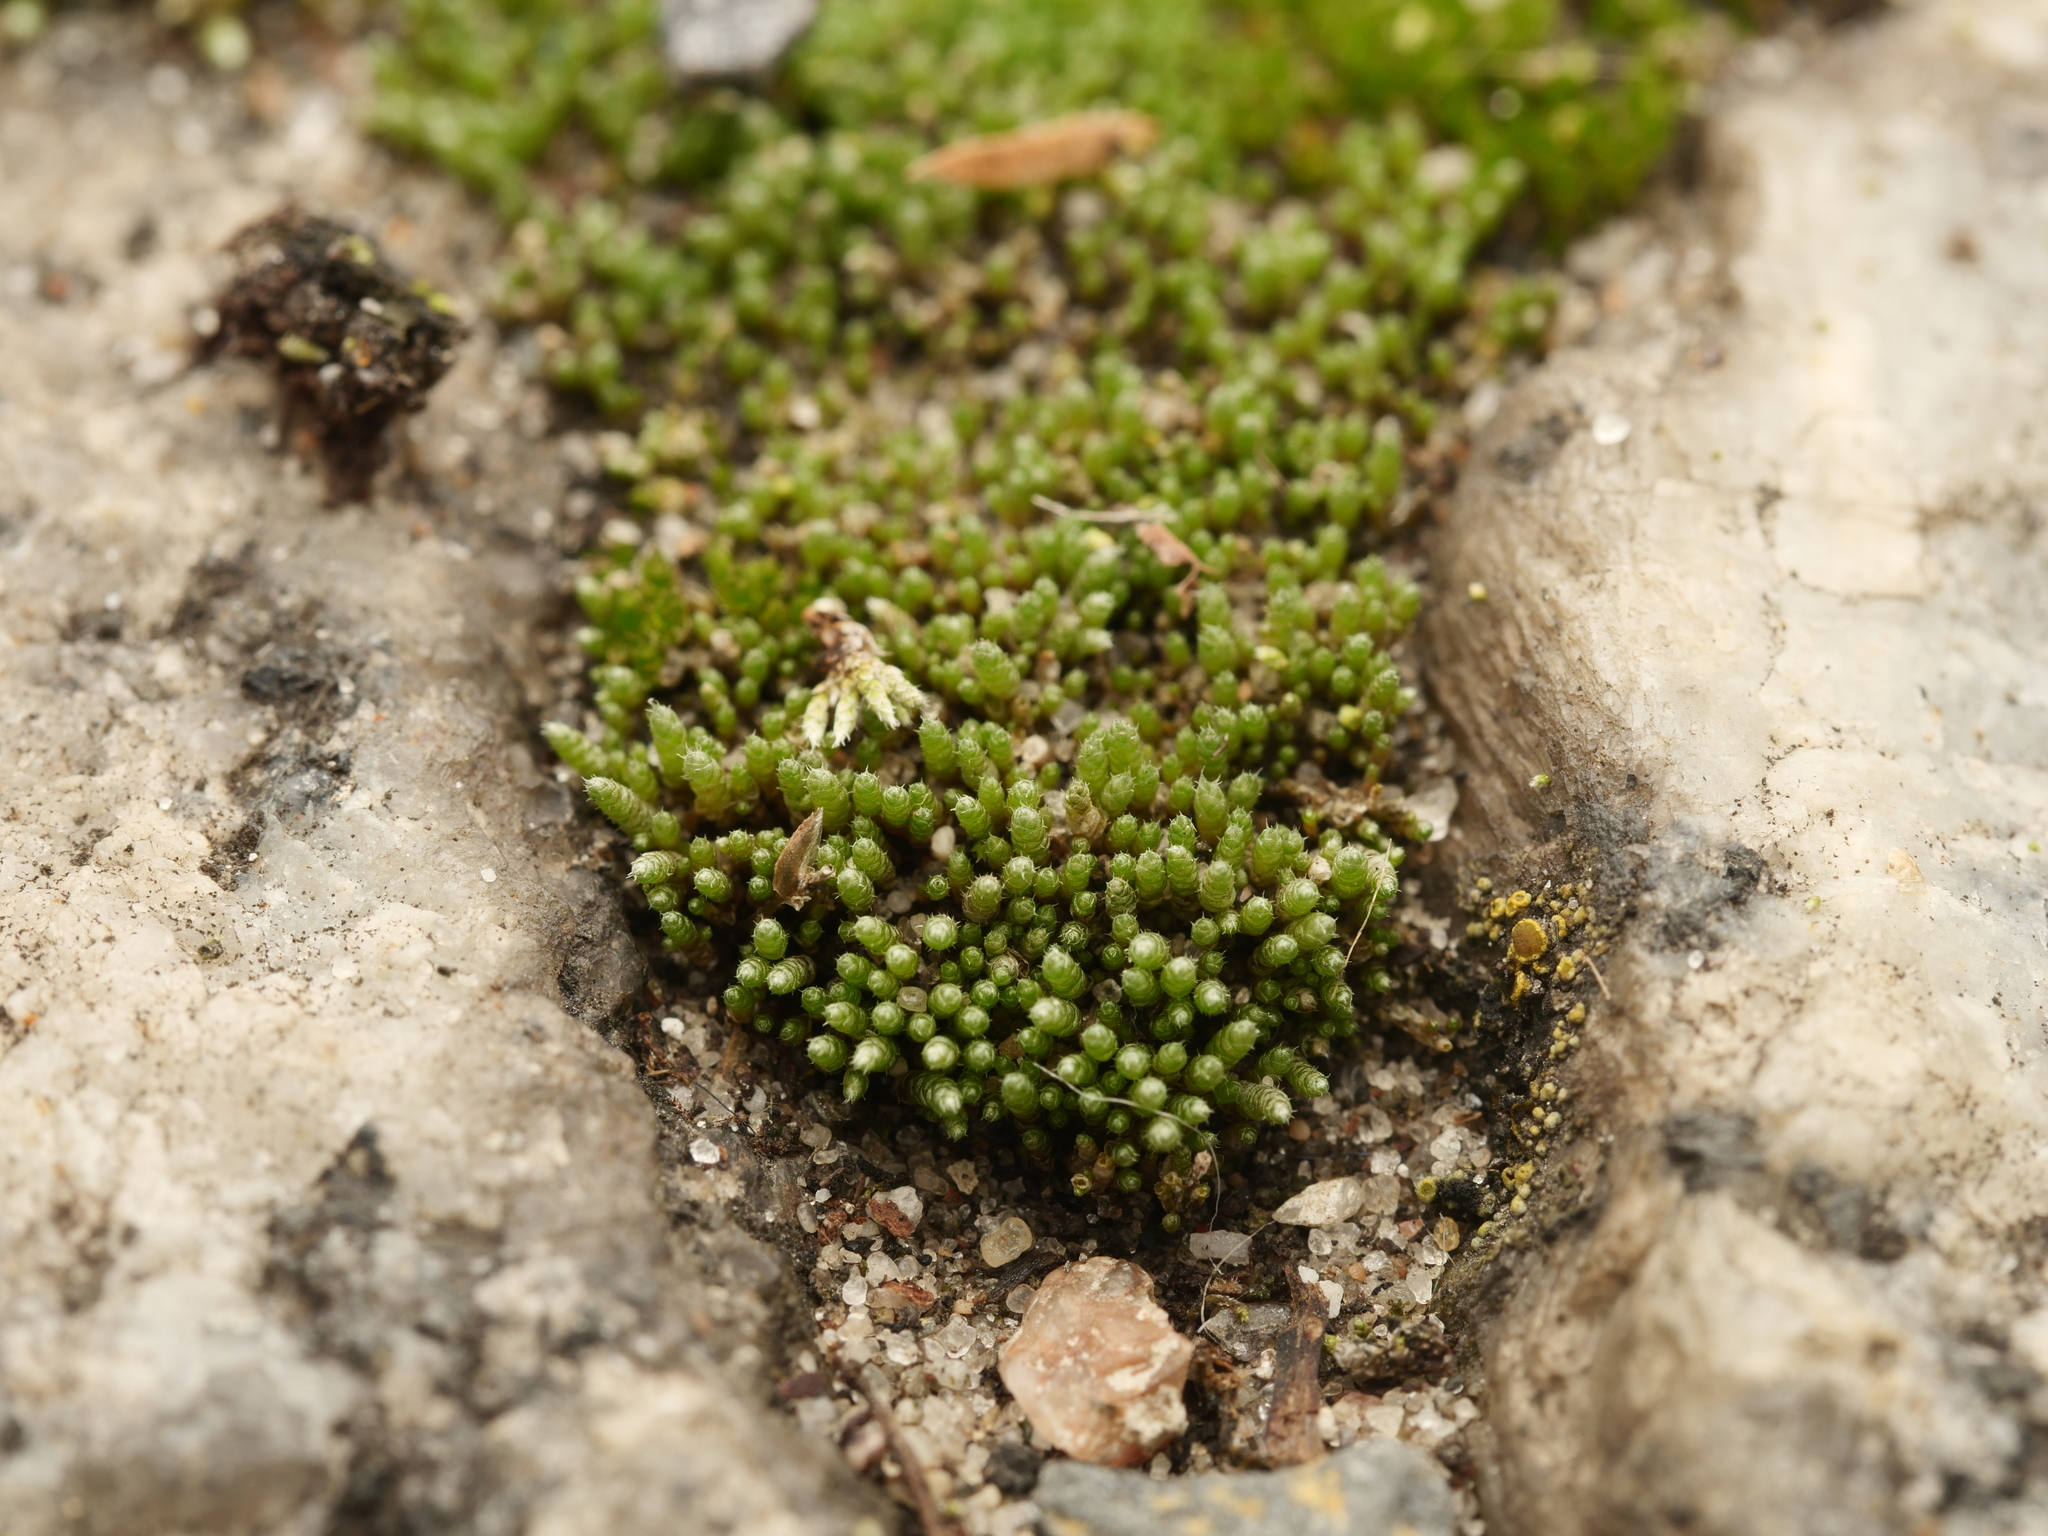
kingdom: Plantae
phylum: Bryophyta
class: Bryopsida
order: Bryales
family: Bryaceae
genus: Bryum
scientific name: Bryum argenteum
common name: Silver-moss
